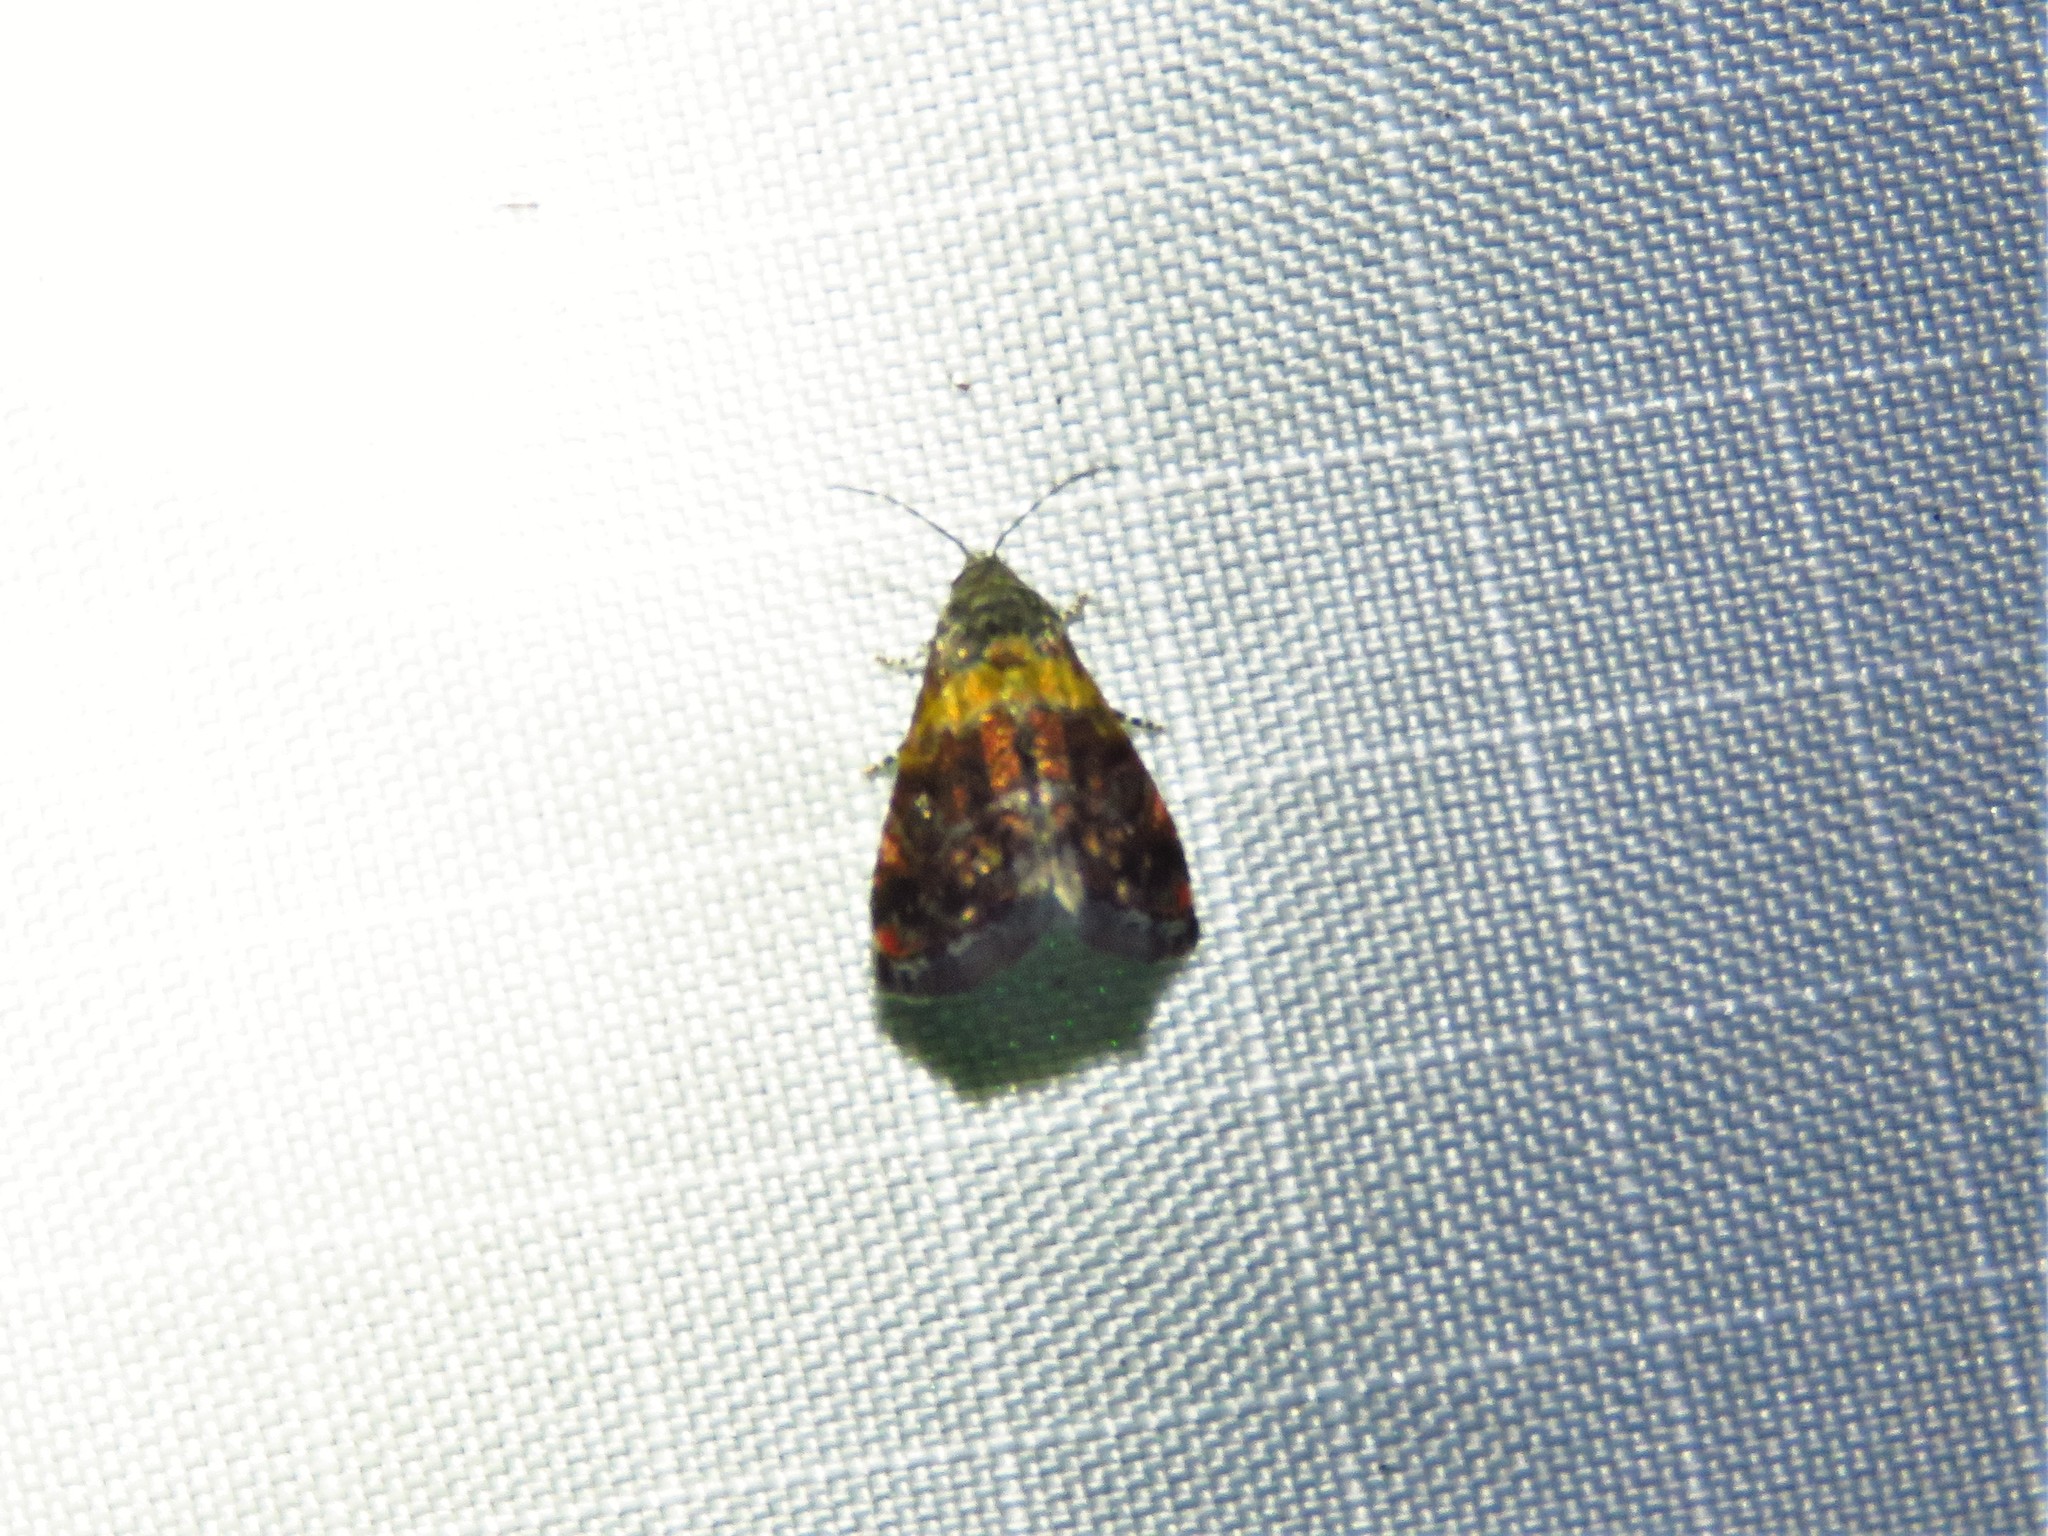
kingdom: Animalia
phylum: Arthropoda
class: Insecta
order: Lepidoptera
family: Noctuidae
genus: Tripudia
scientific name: Tripudia flavofasciata
